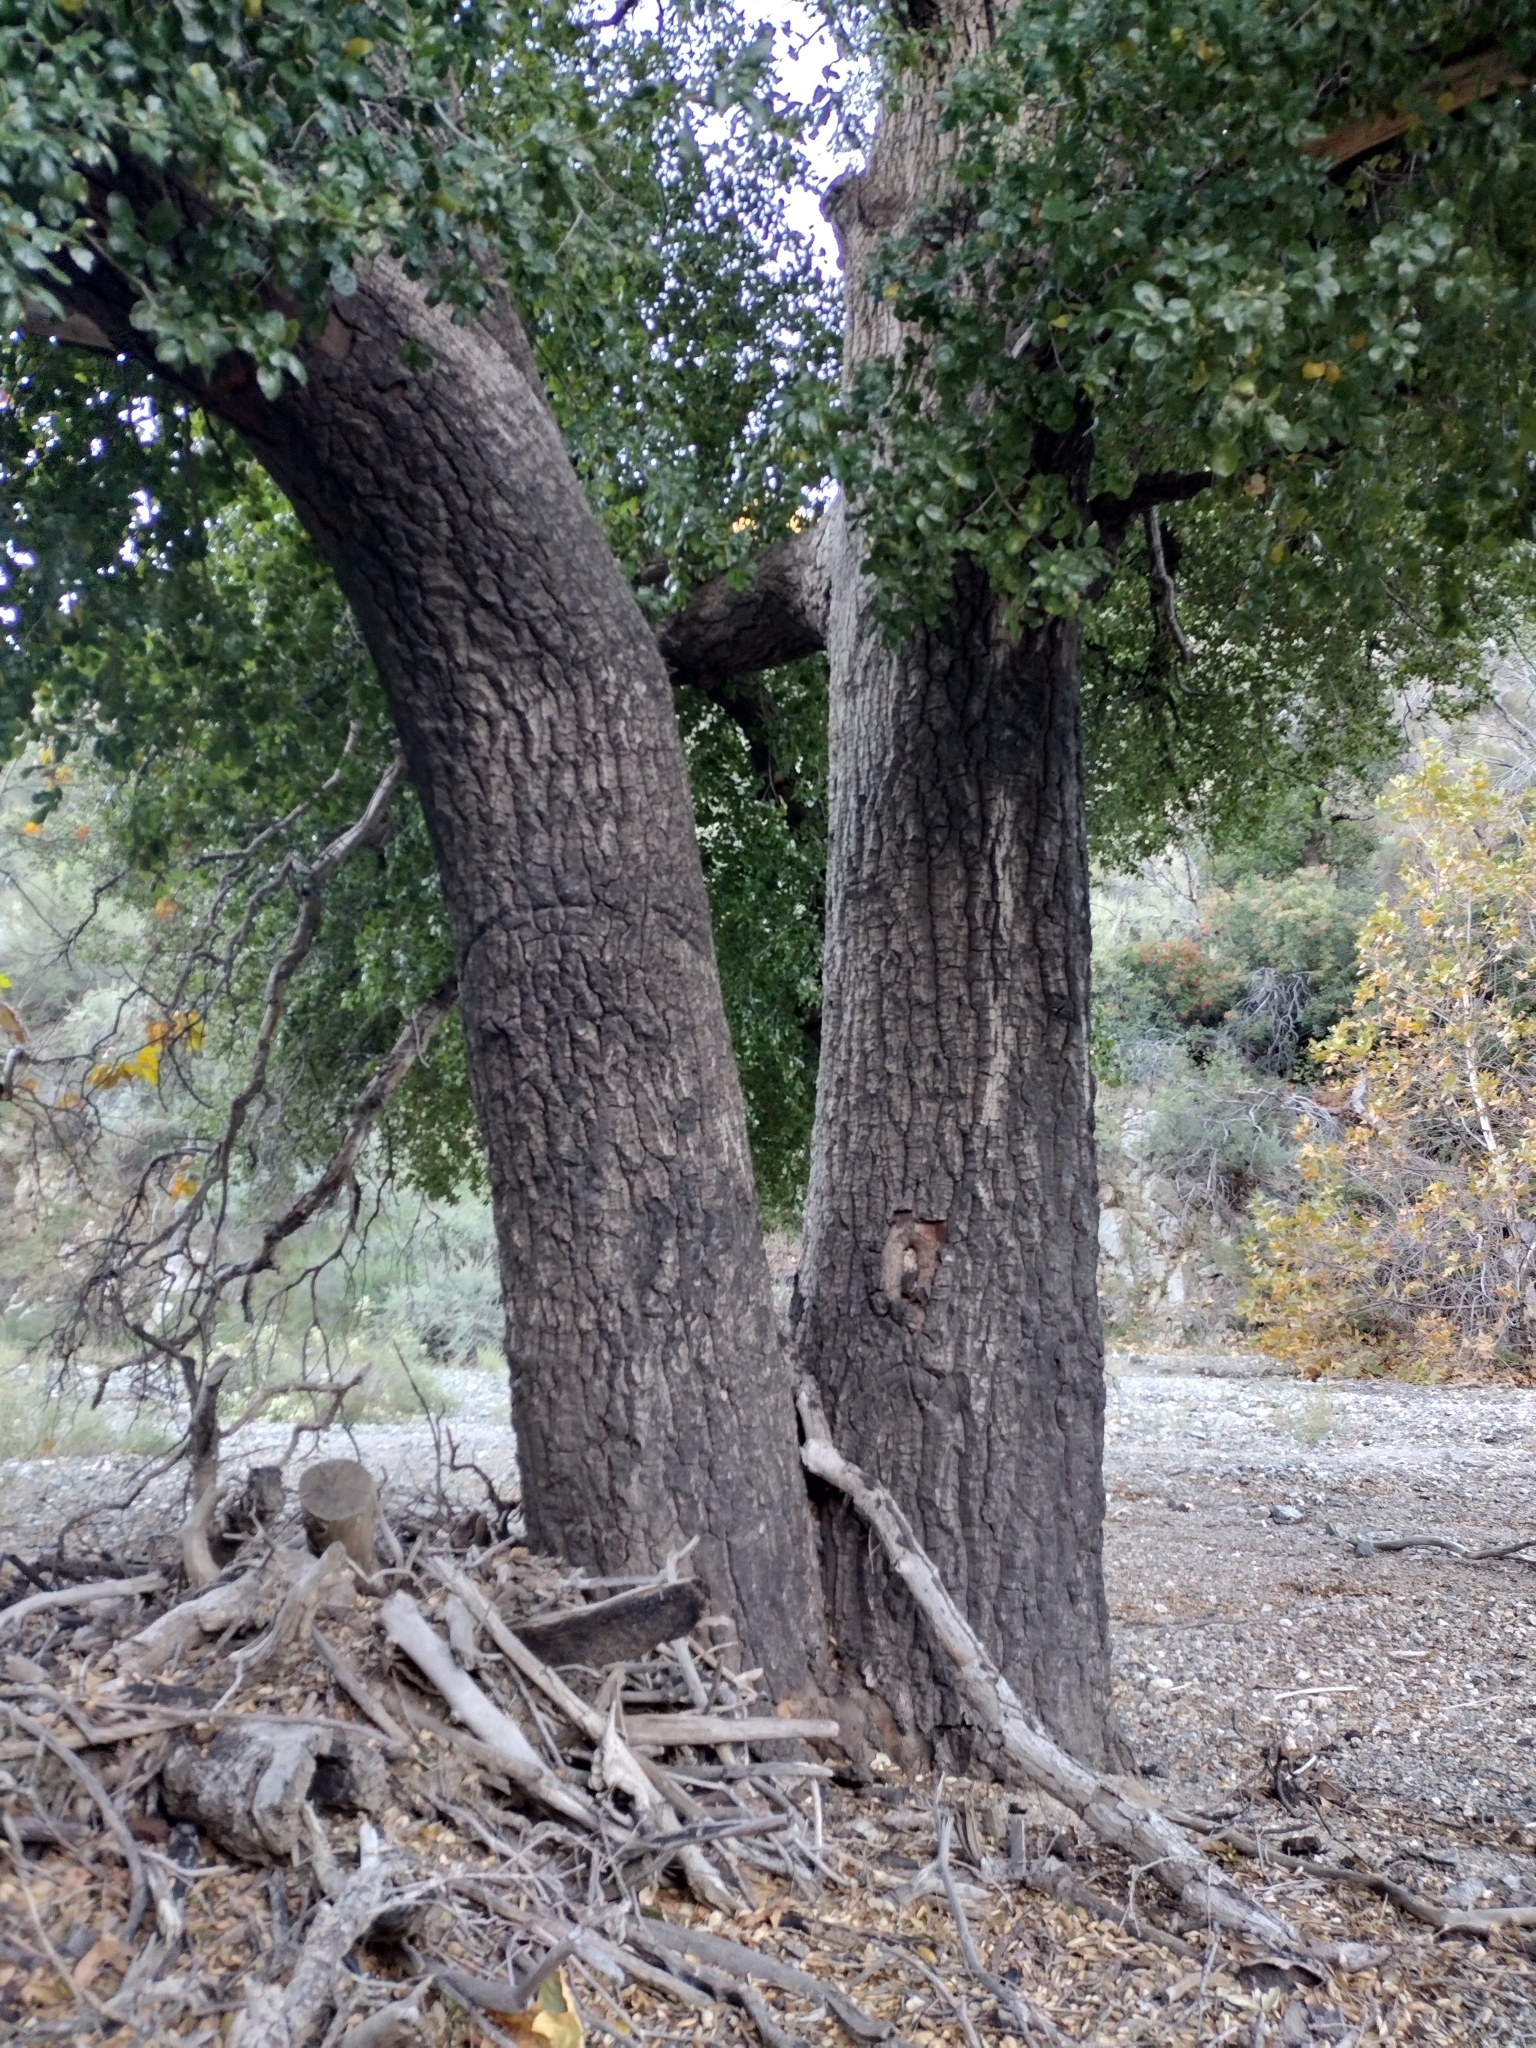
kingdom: Plantae
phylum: Tracheophyta
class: Magnoliopsida
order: Fagales
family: Fagaceae
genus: Quercus
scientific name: Quercus agrifolia
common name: California live oak
